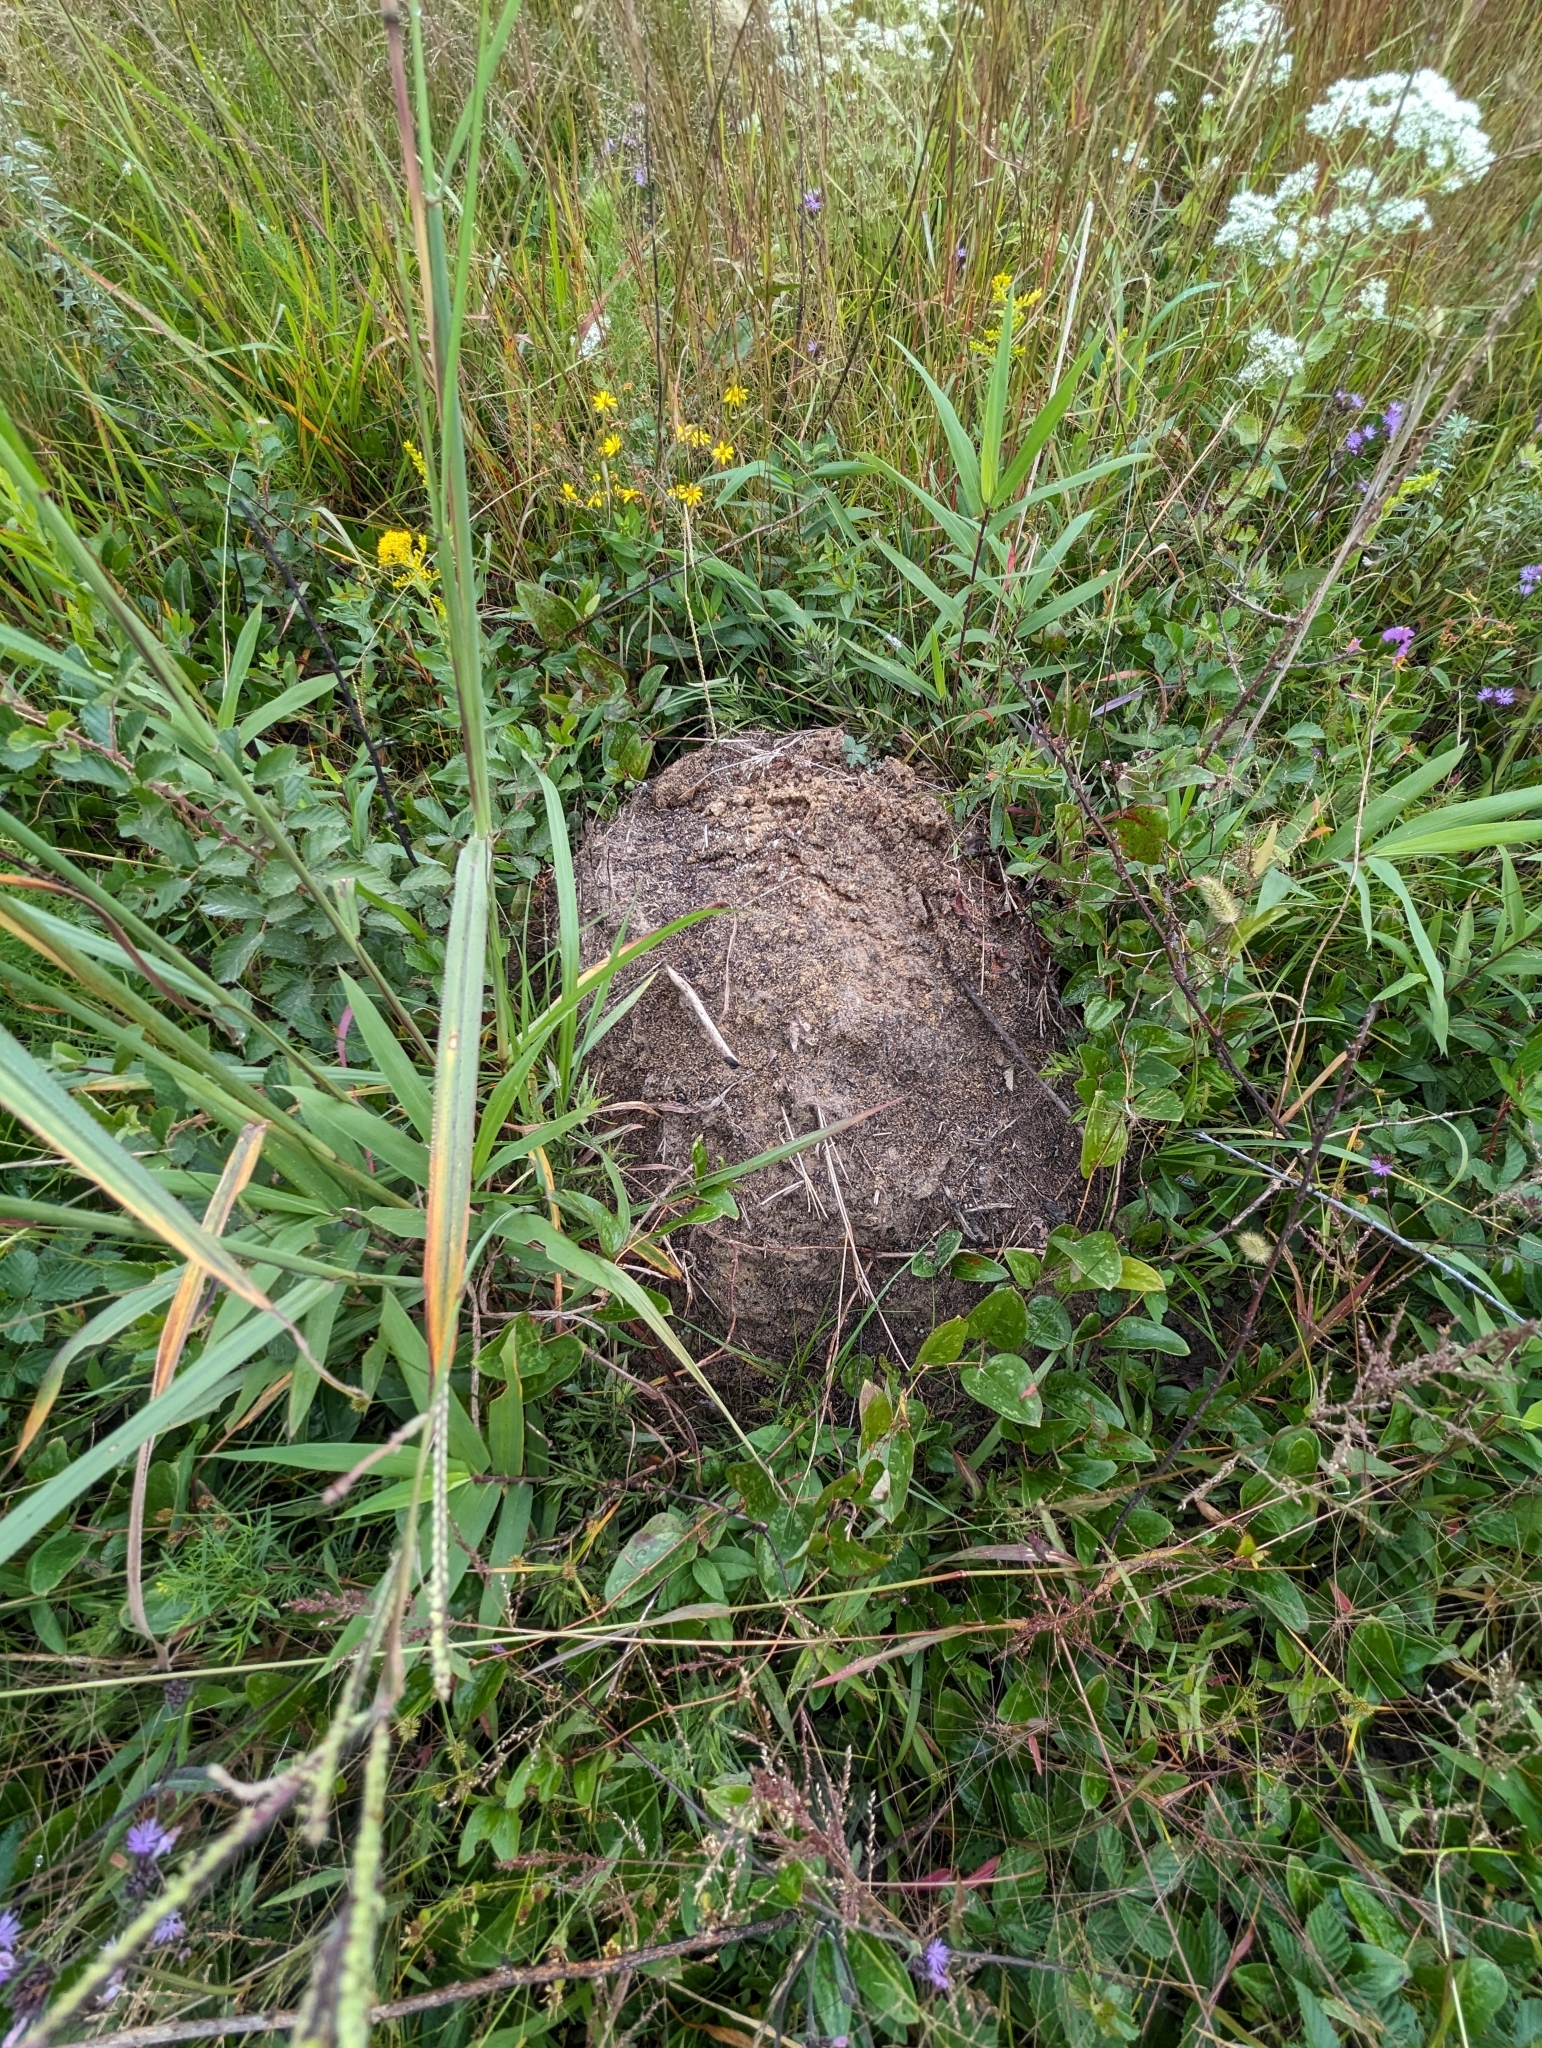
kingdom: Animalia
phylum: Arthropoda
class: Insecta
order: Hymenoptera
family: Formicidae
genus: Solenopsis
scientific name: Solenopsis invicta
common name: Red imported fire ant
